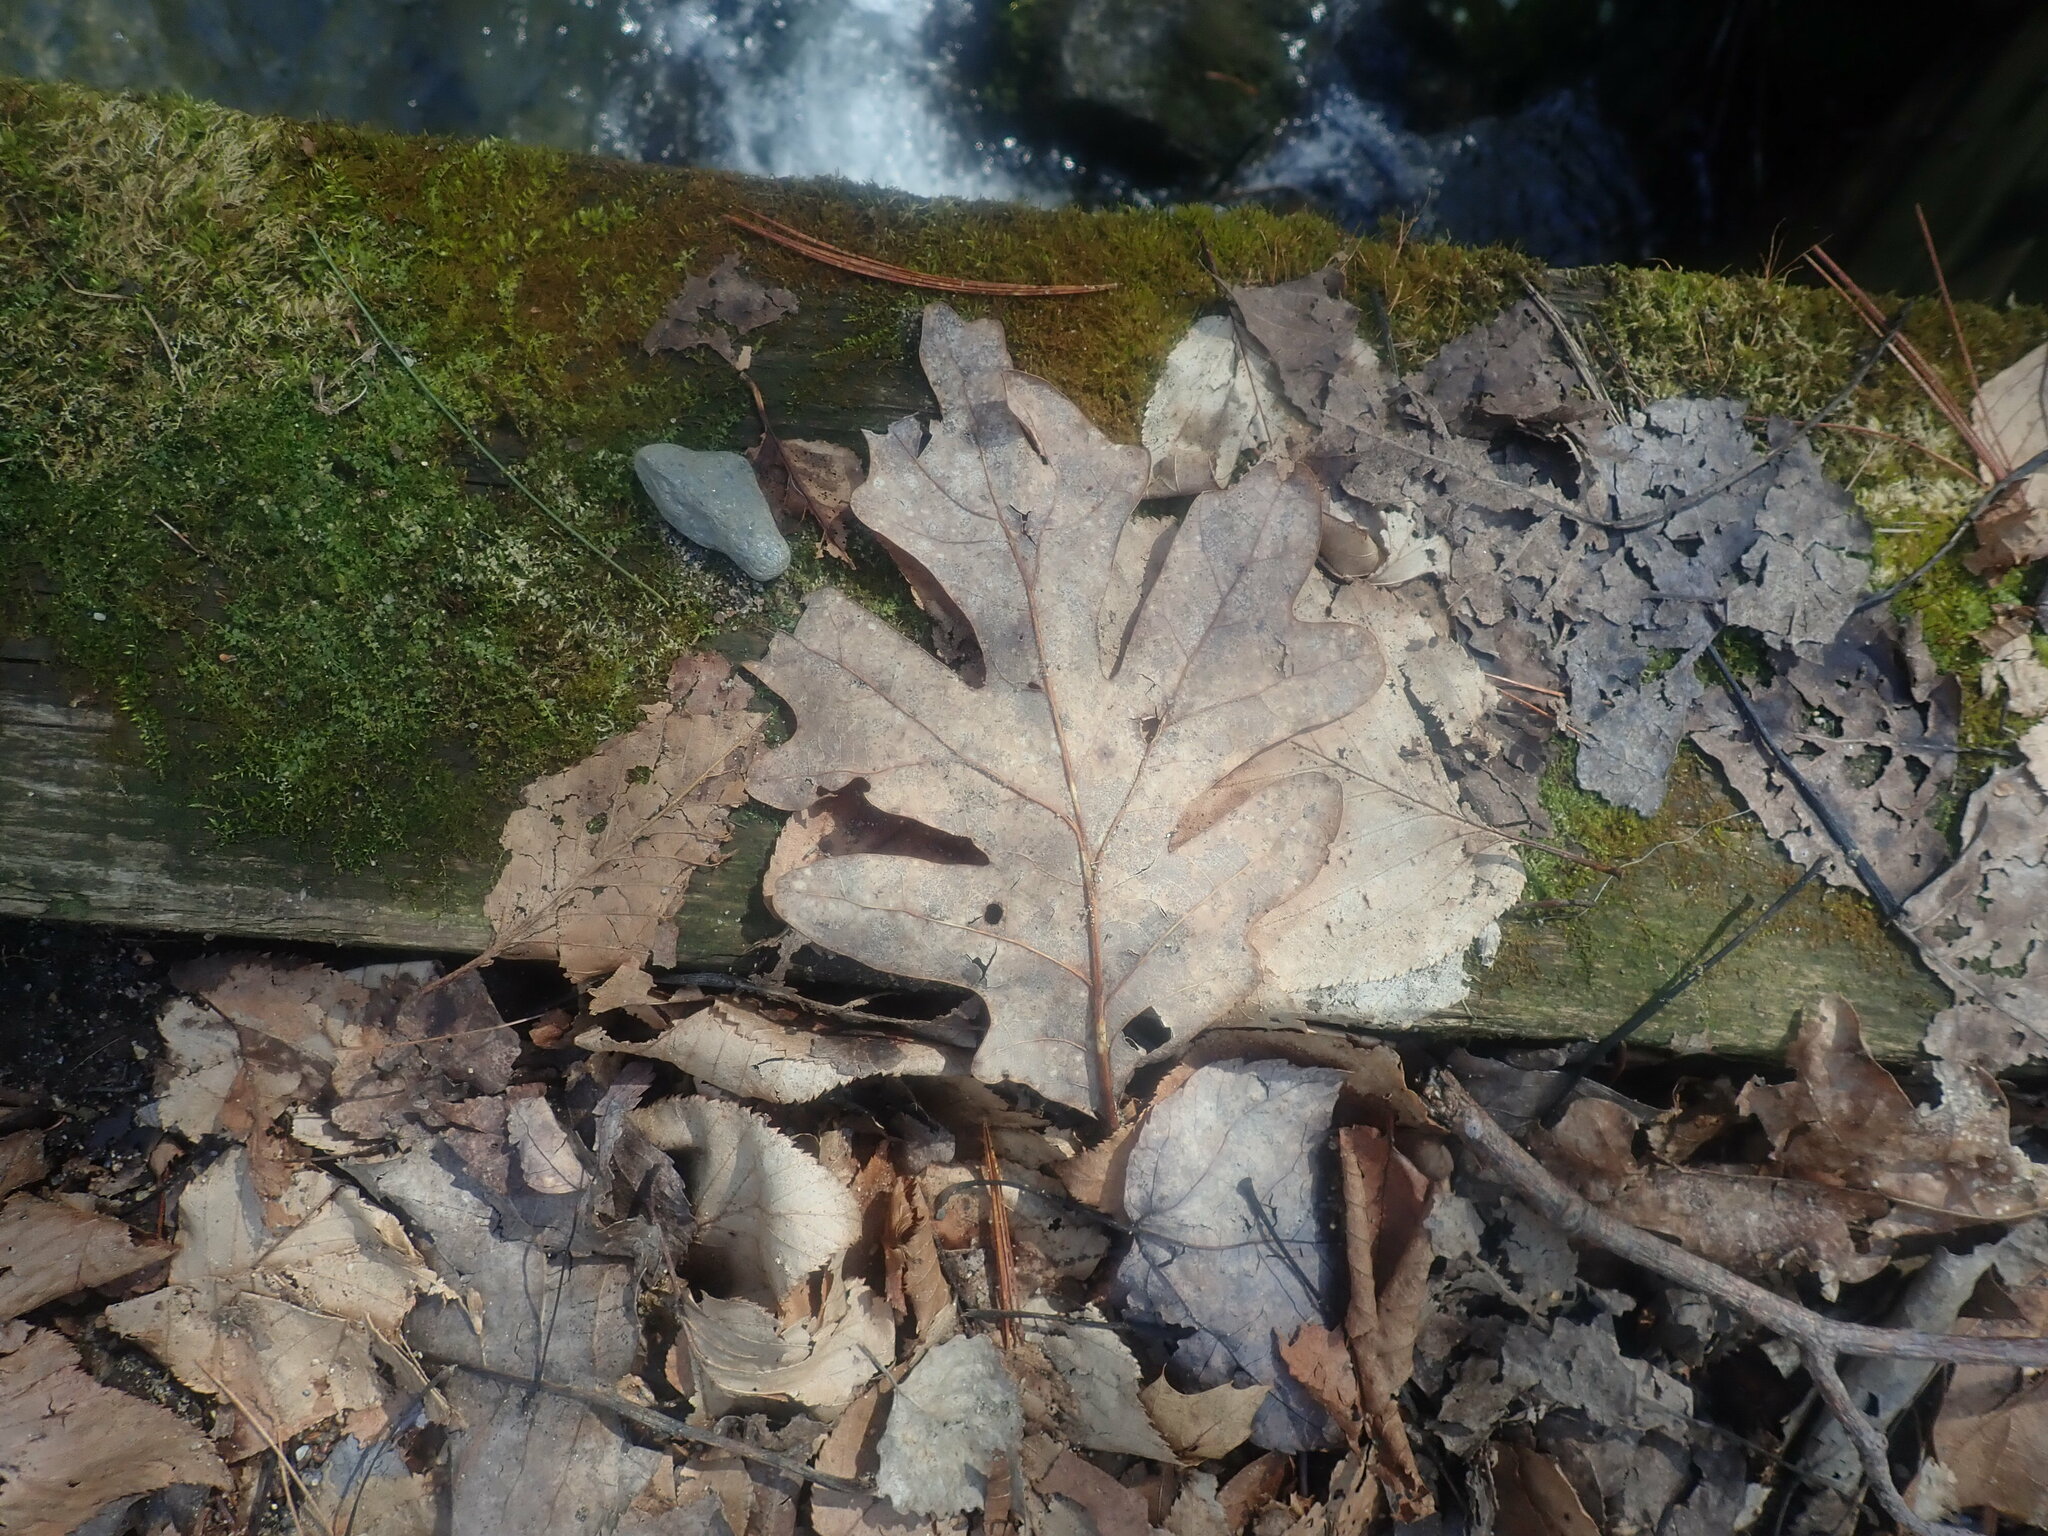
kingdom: Plantae
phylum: Tracheophyta
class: Magnoliopsida
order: Fagales
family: Fagaceae
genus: Quercus
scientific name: Quercus alba
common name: White oak
